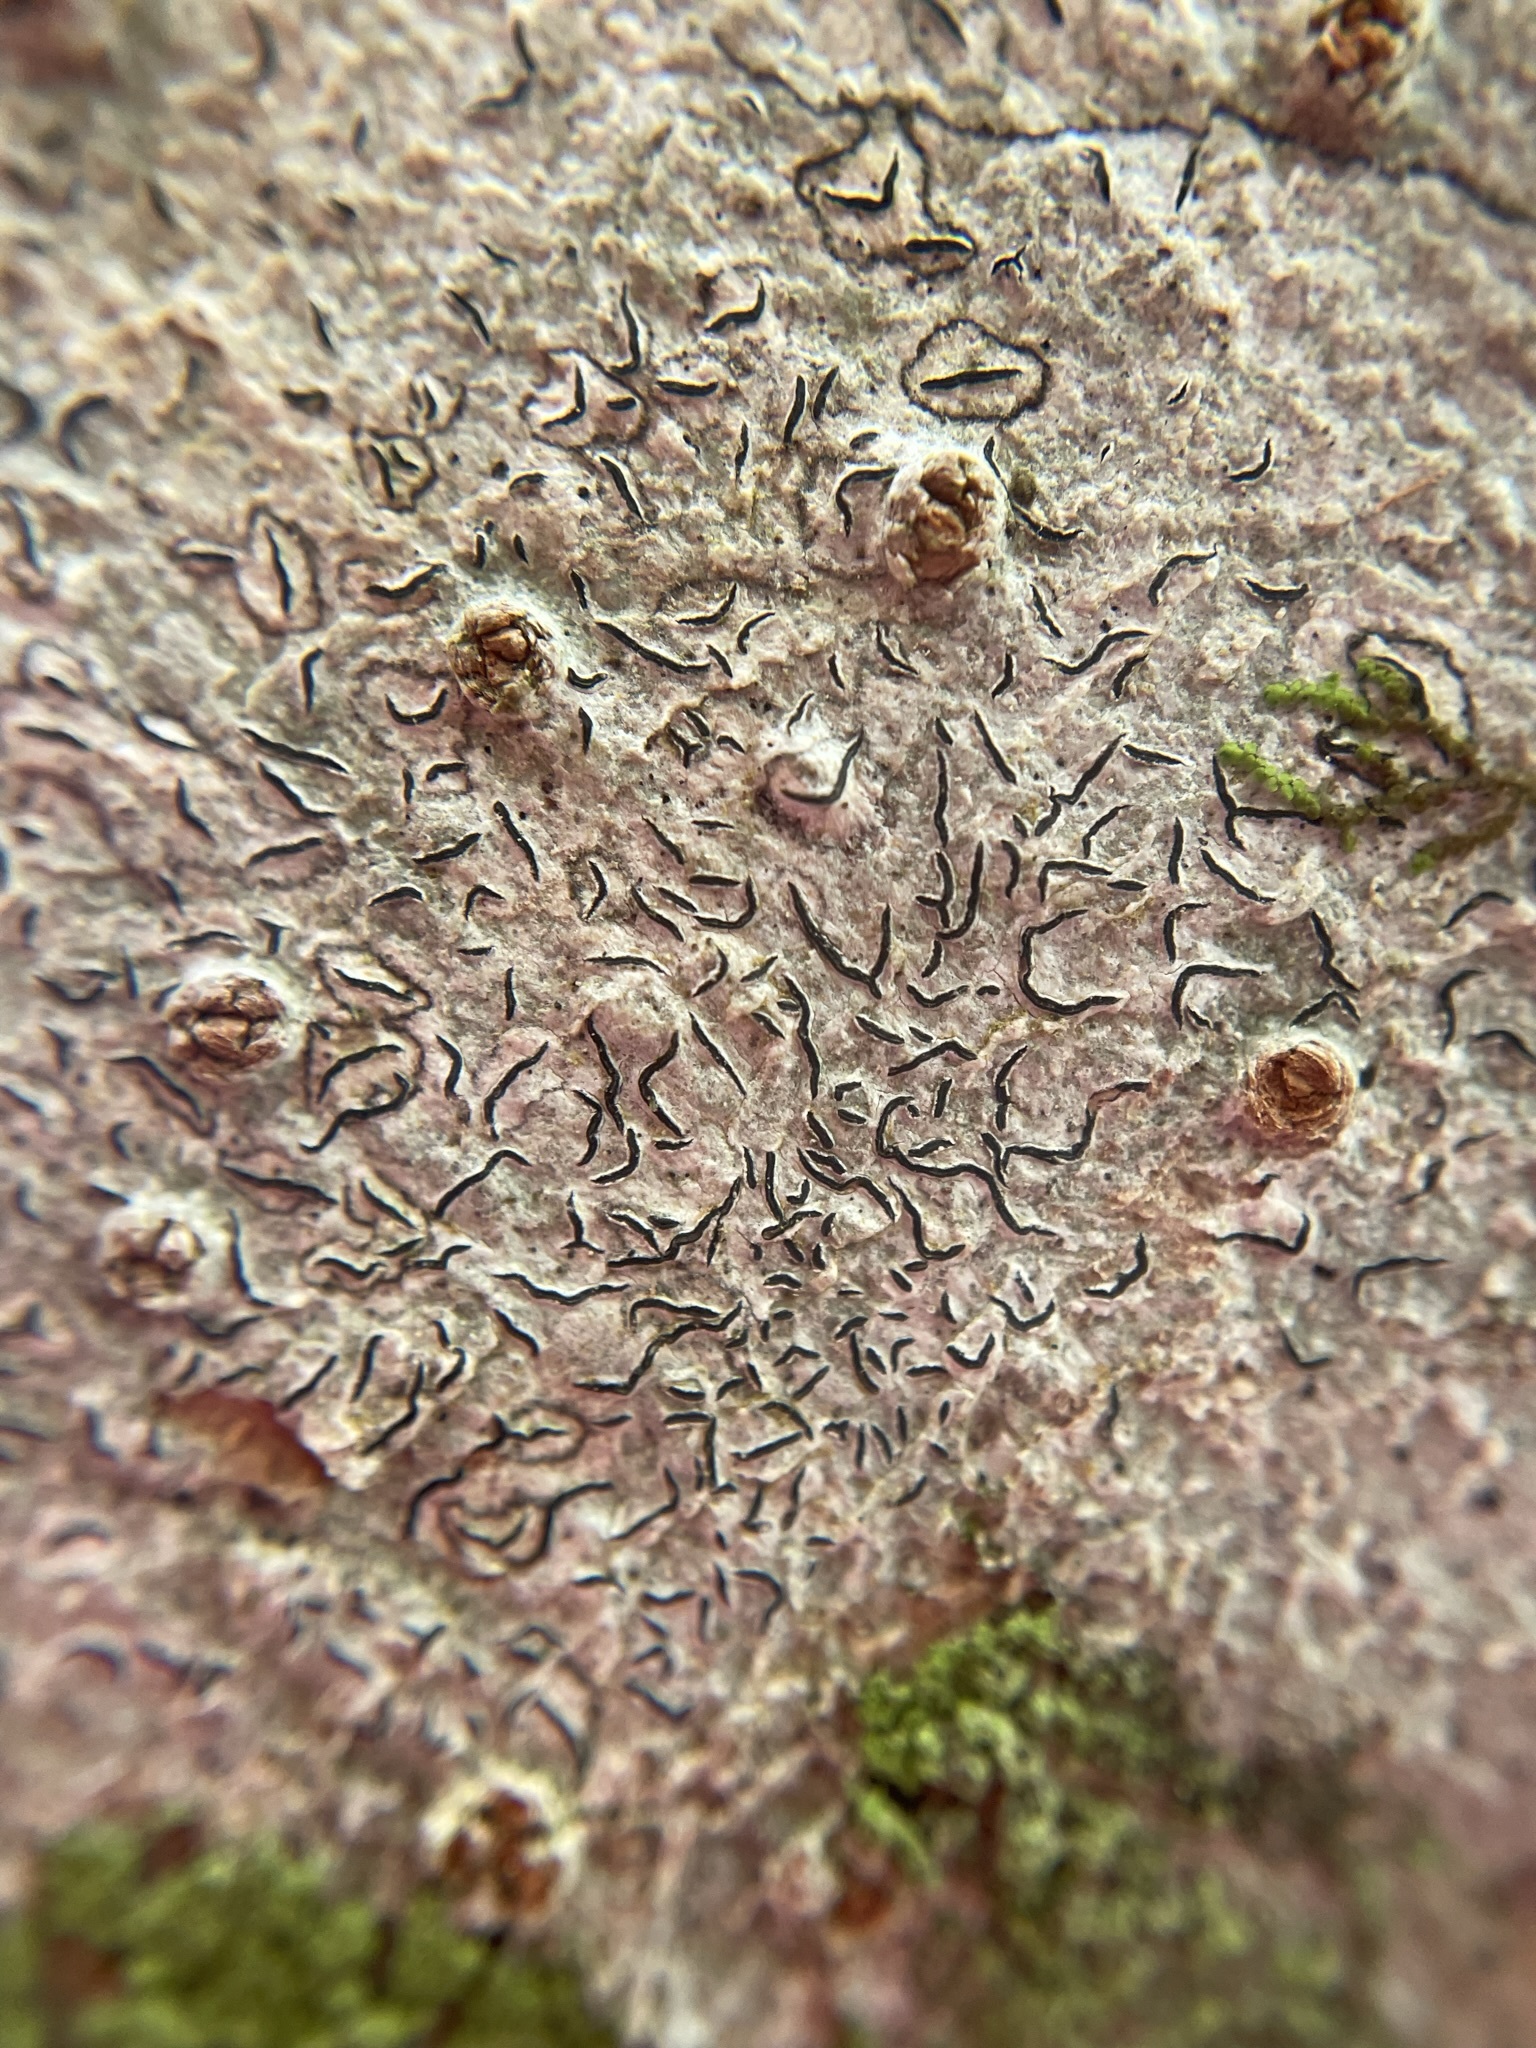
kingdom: Fungi
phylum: Ascomycota
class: Lecanoromycetes
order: Ostropales
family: Graphidaceae
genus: Graphis
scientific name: Graphis scripta
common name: Script lichen
